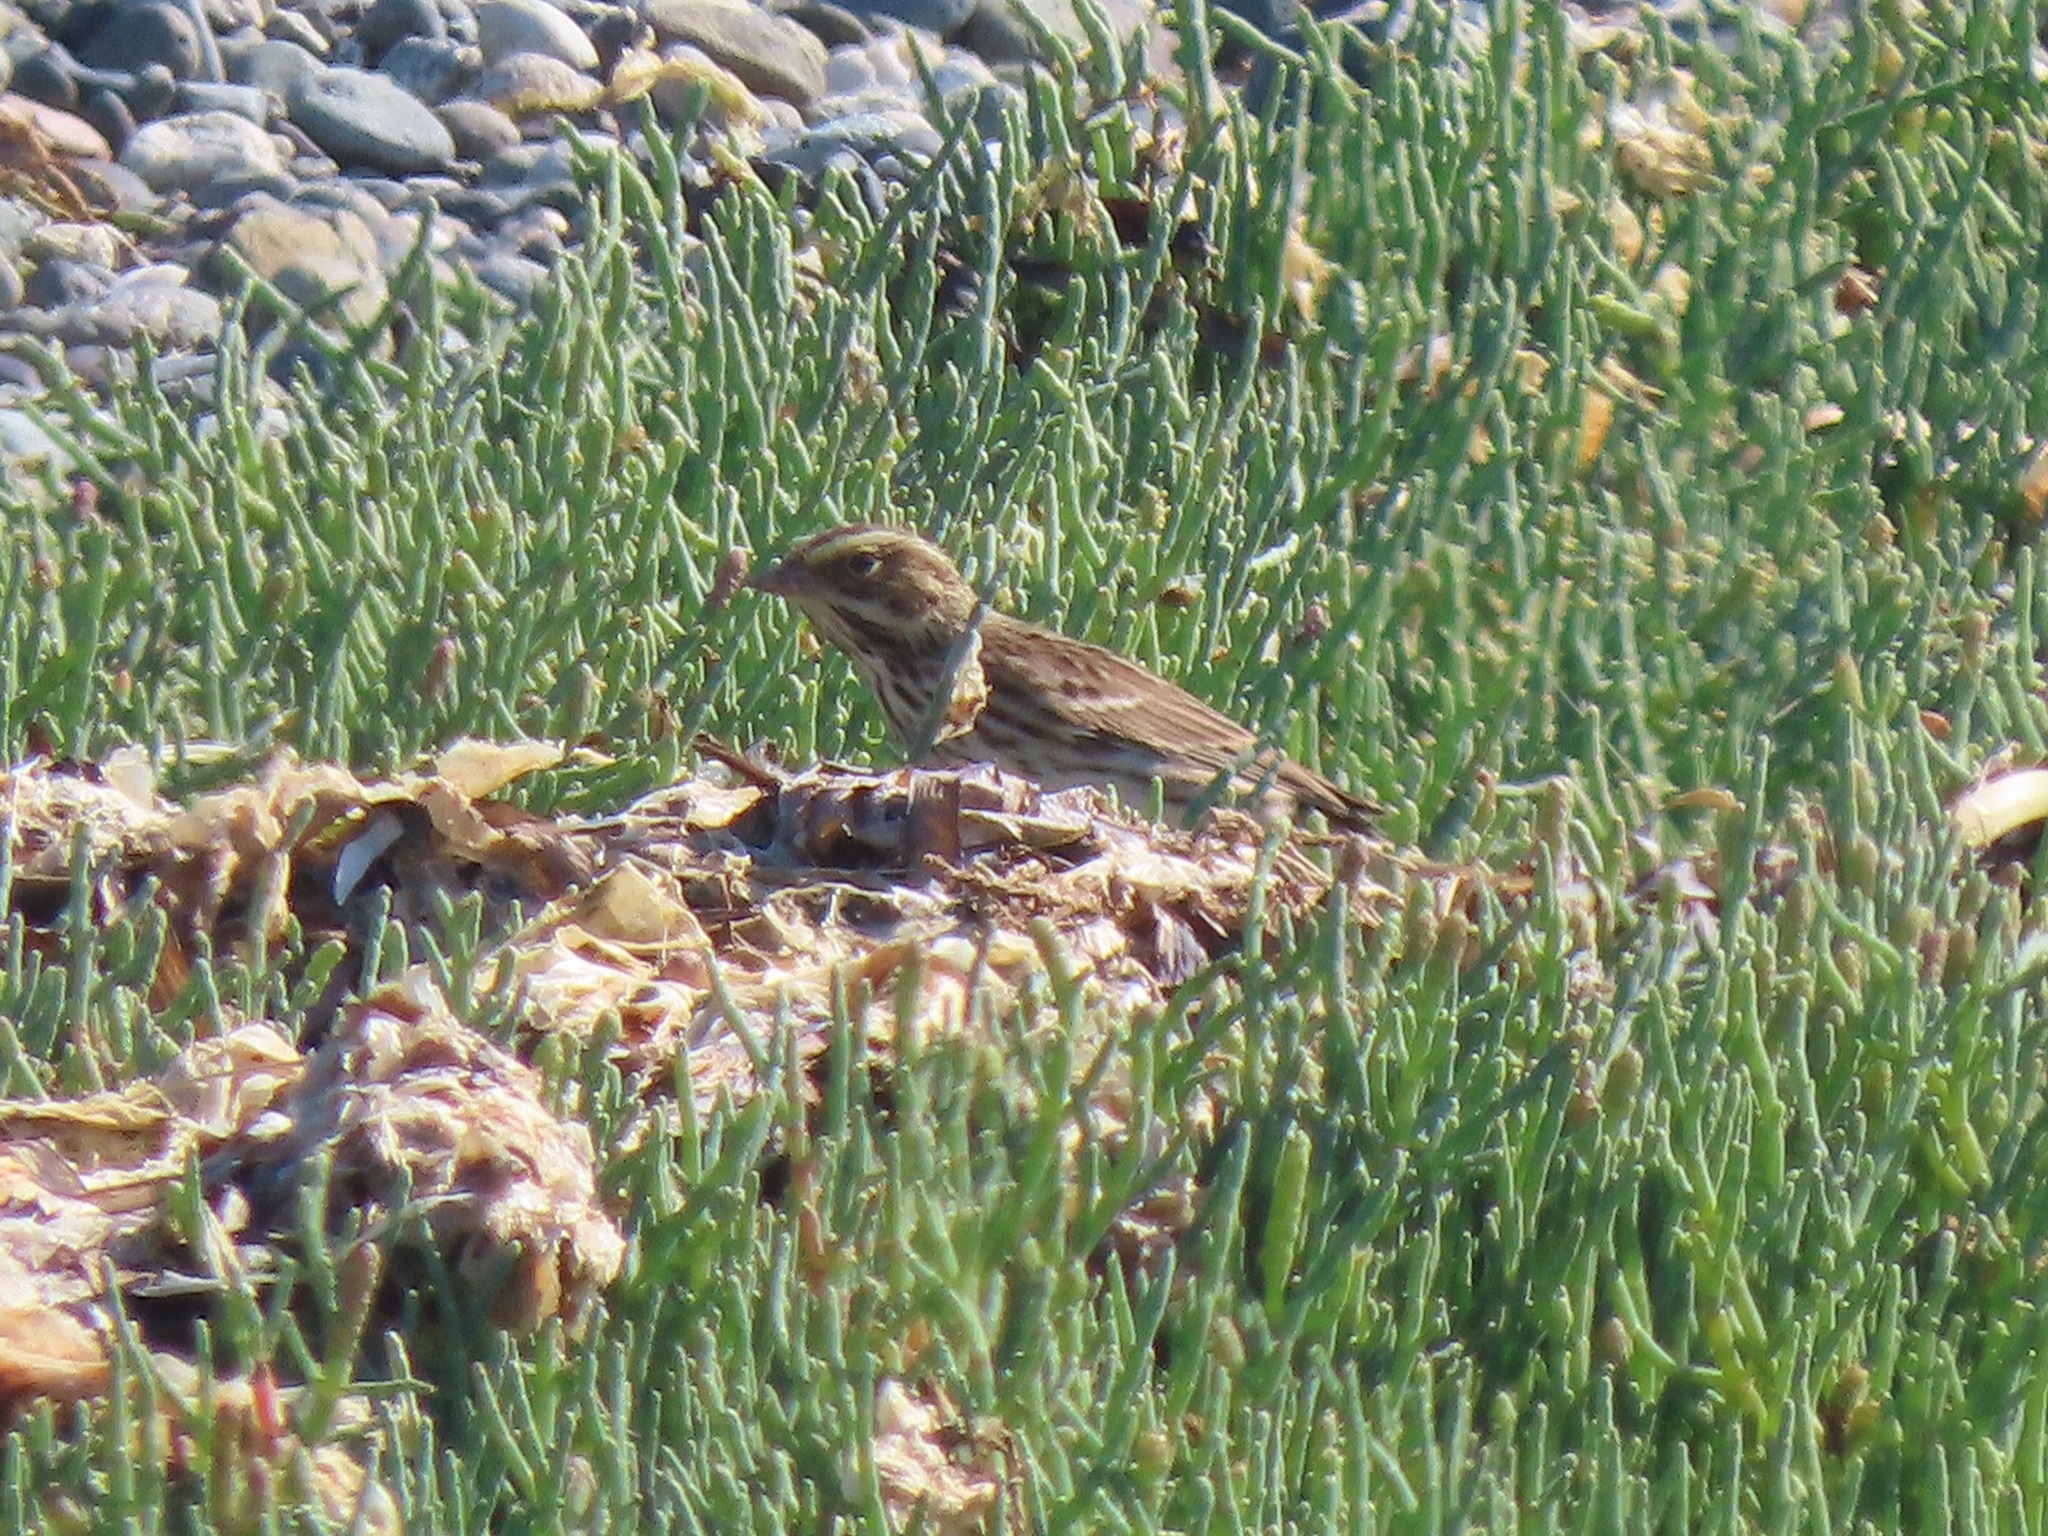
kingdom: Animalia
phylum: Chordata
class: Aves
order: Passeriformes
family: Passerellidae
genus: Passerculus
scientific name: Passerculus sandwichensis
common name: Savannah sparrow
